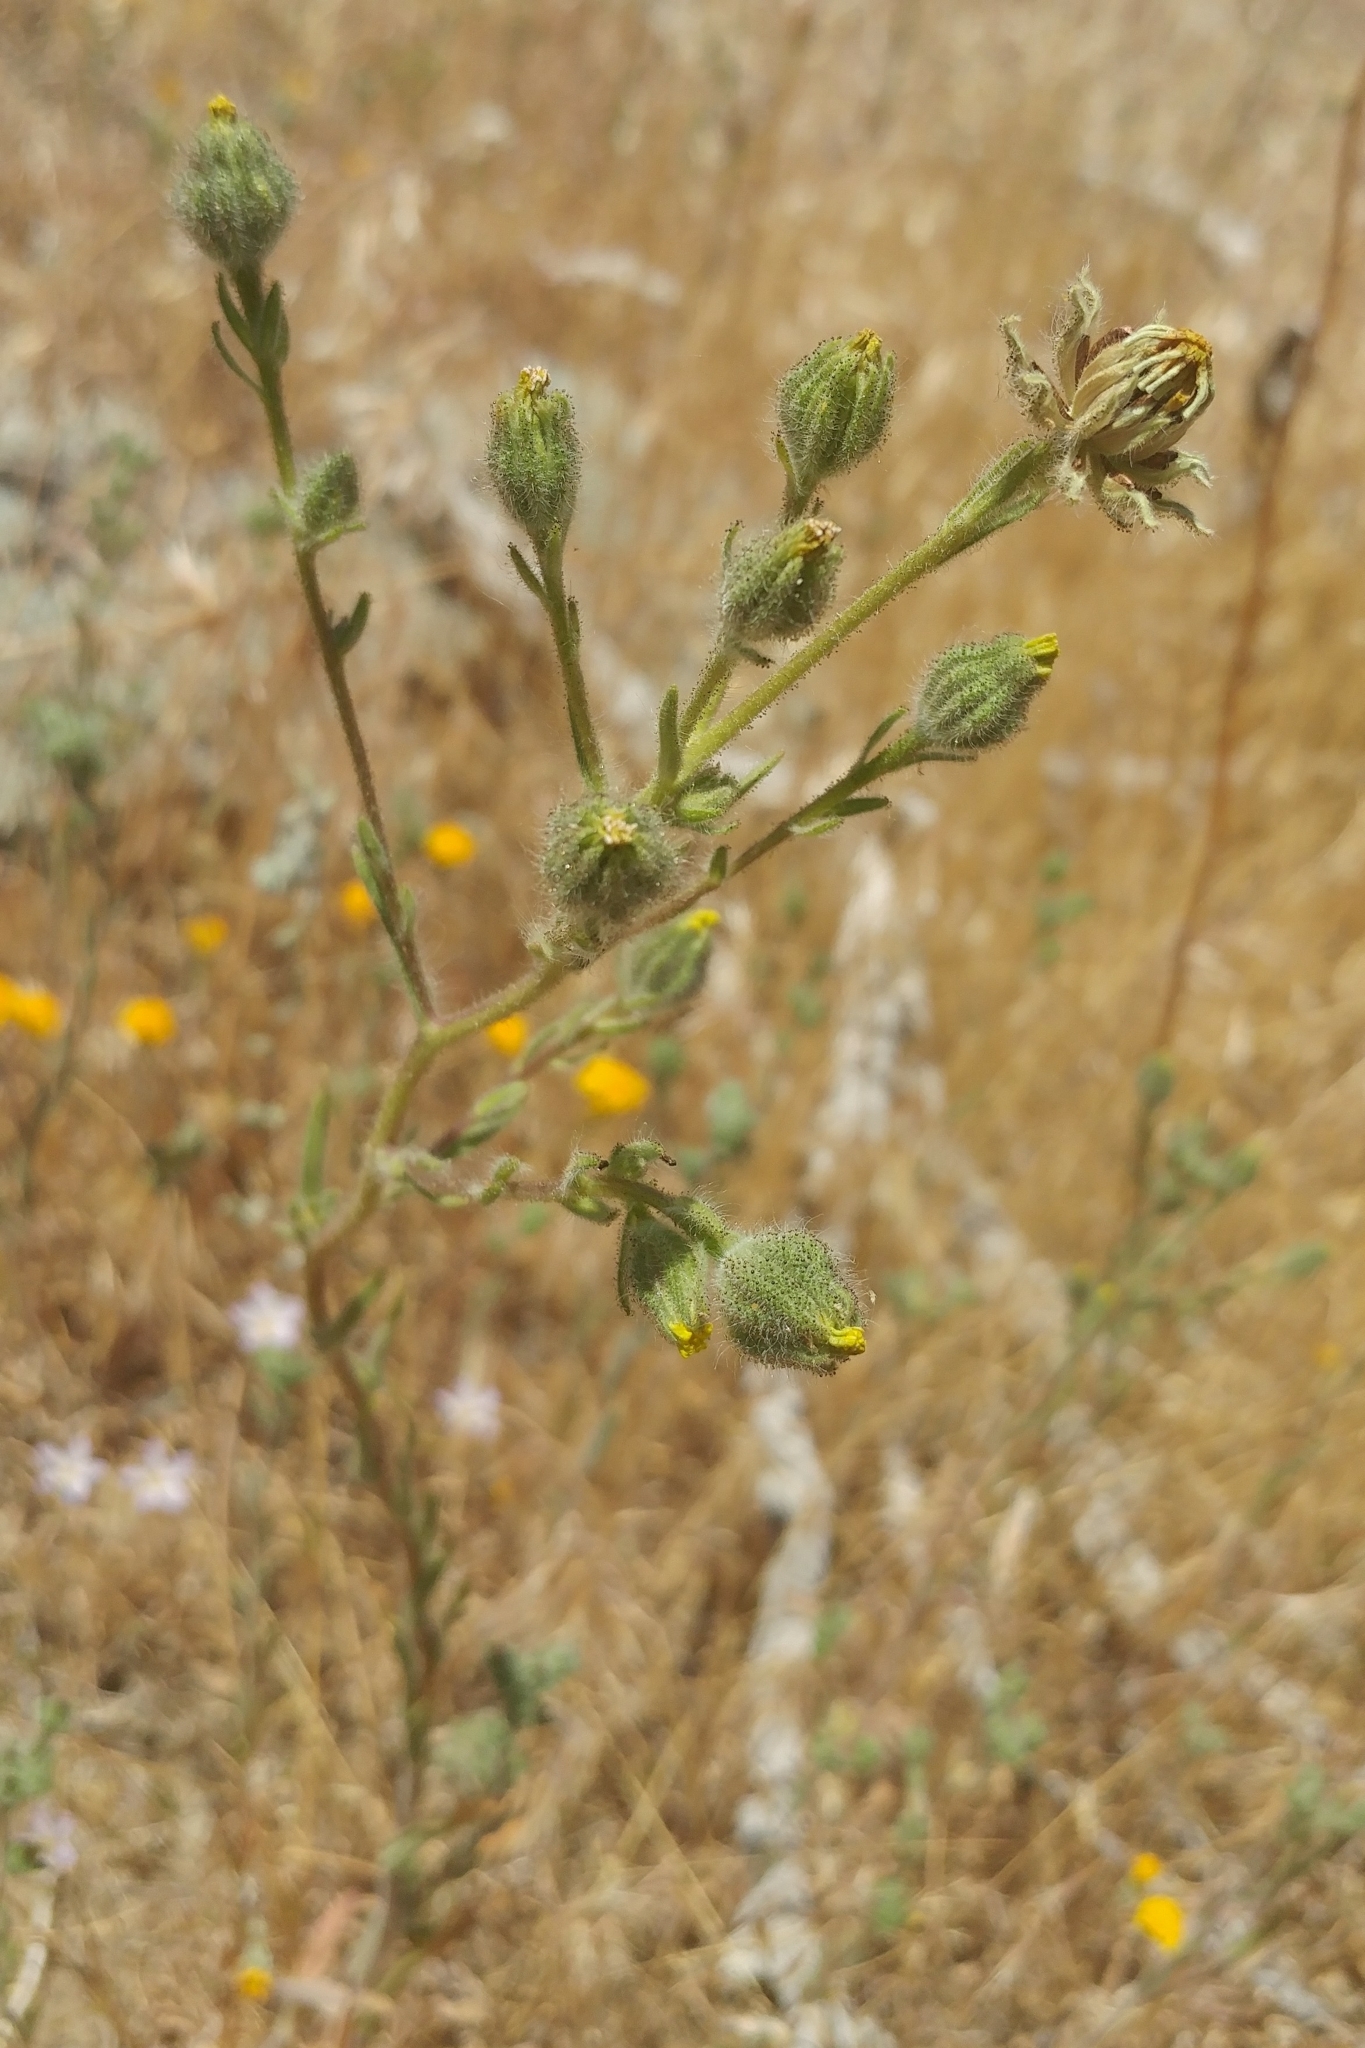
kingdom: Plantae
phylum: Tracheophyta
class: Magnoliopsida
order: Asterales
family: Asteraceae
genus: Madia
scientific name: Madia gracilis
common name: Grassy tarweed
